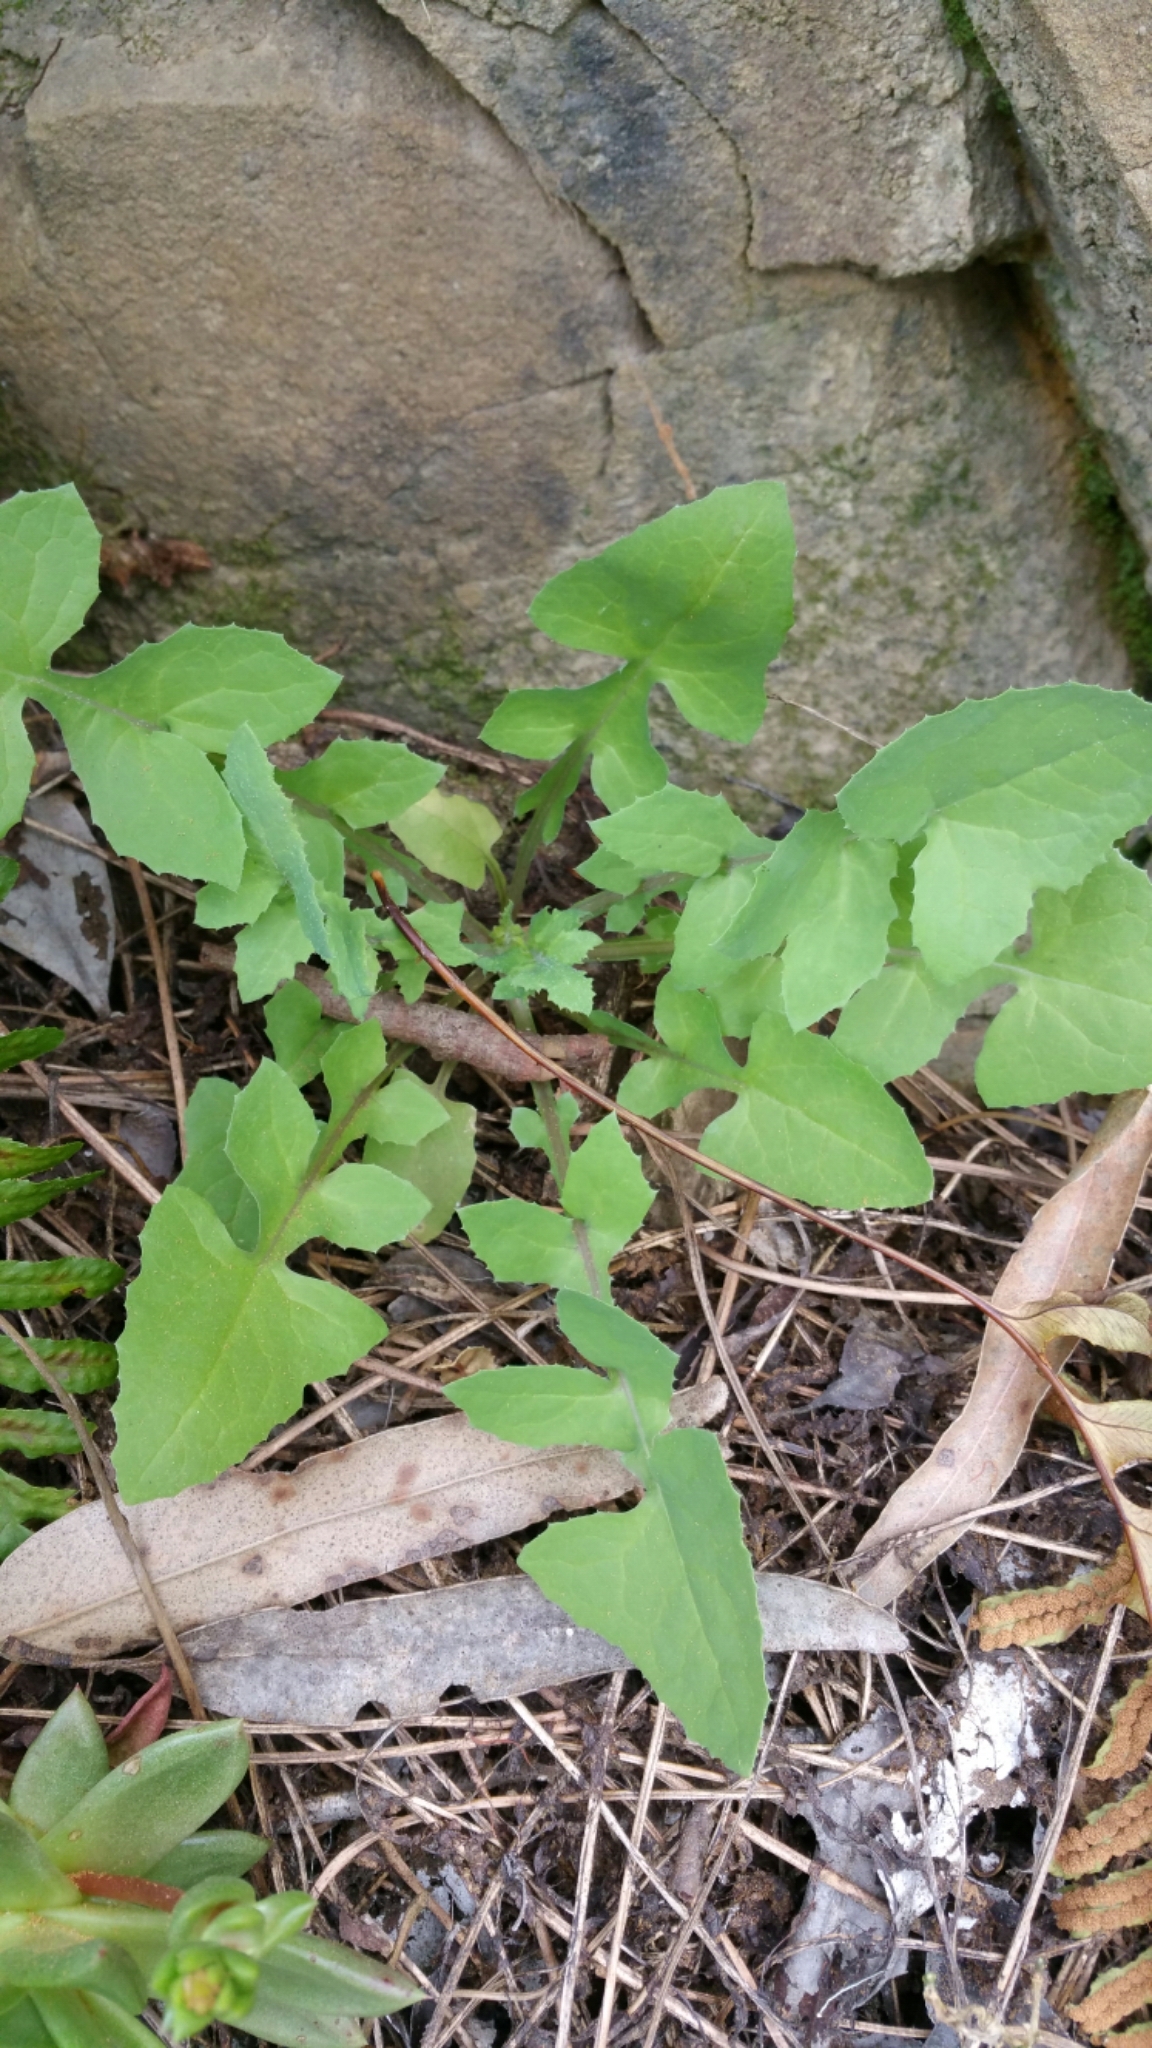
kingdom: Plantae
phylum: Tracheophyta
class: Magnoliopsida
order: Asterales
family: Asteraceae
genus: Sonchus
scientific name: Sonchus oleraceus
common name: Common sowthistle
